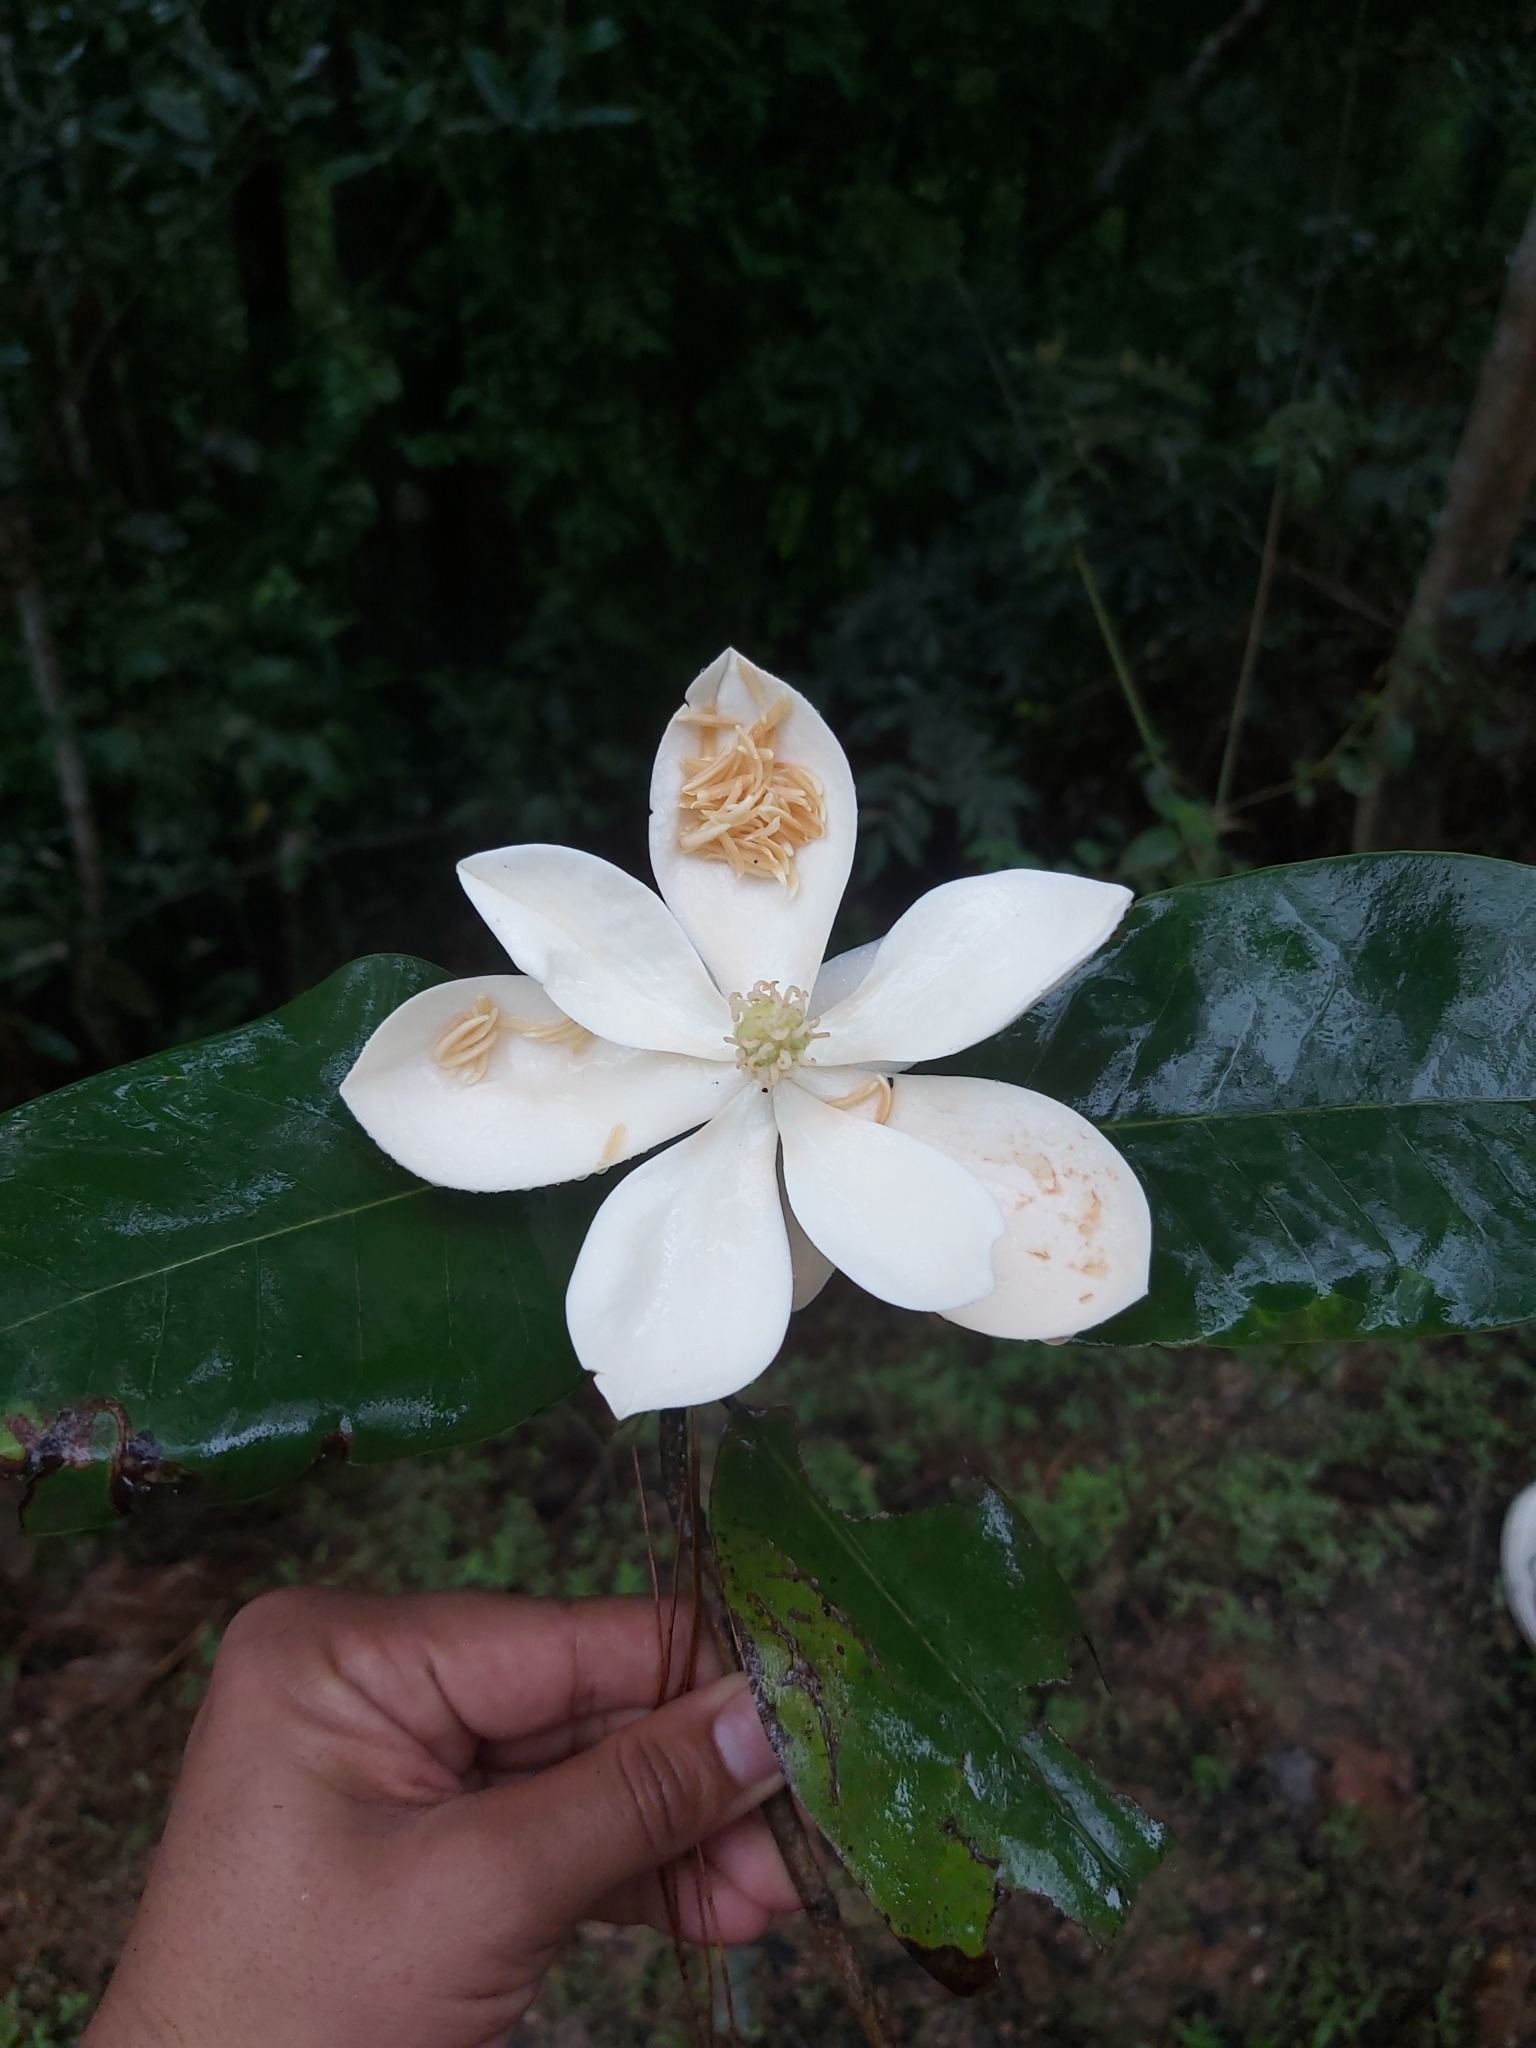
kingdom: Plantae
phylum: Tracheophyta
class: Magnoliopsida
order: Magnoliales
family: Magnoliaceae
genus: Magnolia
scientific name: Magnolia pacifica
